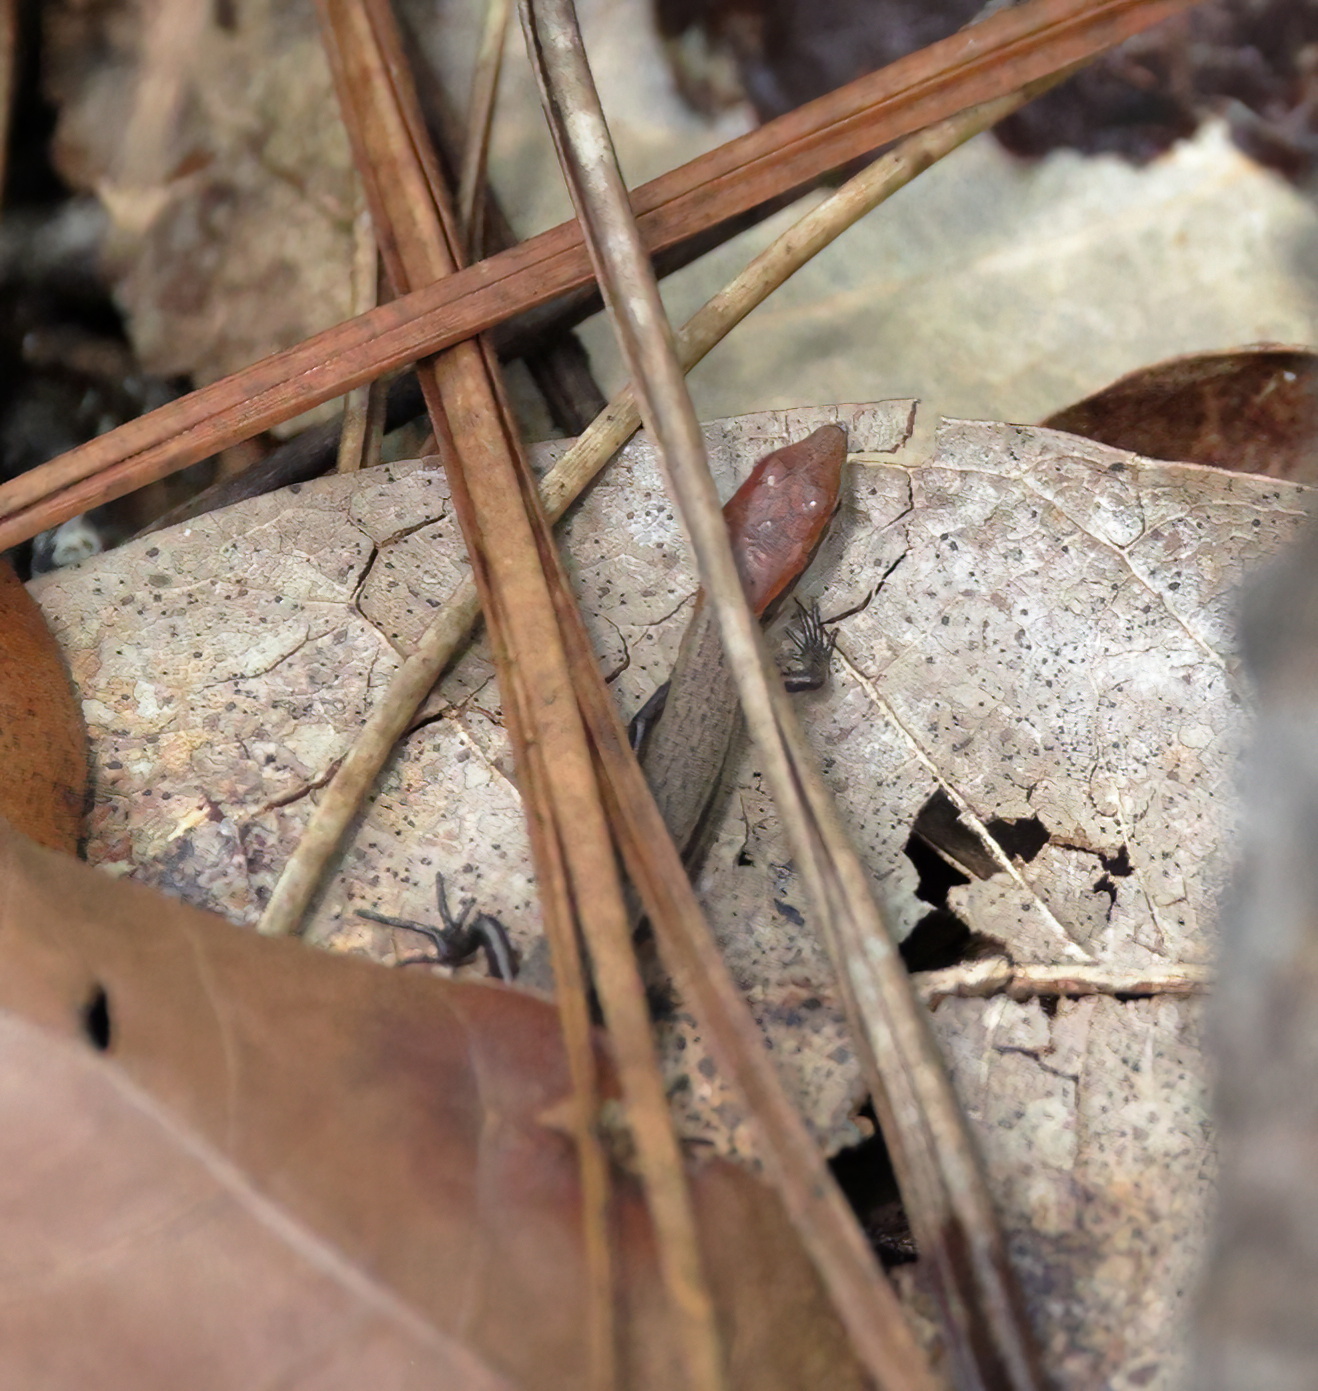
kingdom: Animalia
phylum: Chordata
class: Squamata
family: Scincidae
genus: Scincella
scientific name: Scincella lateralis
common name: Ground skink
